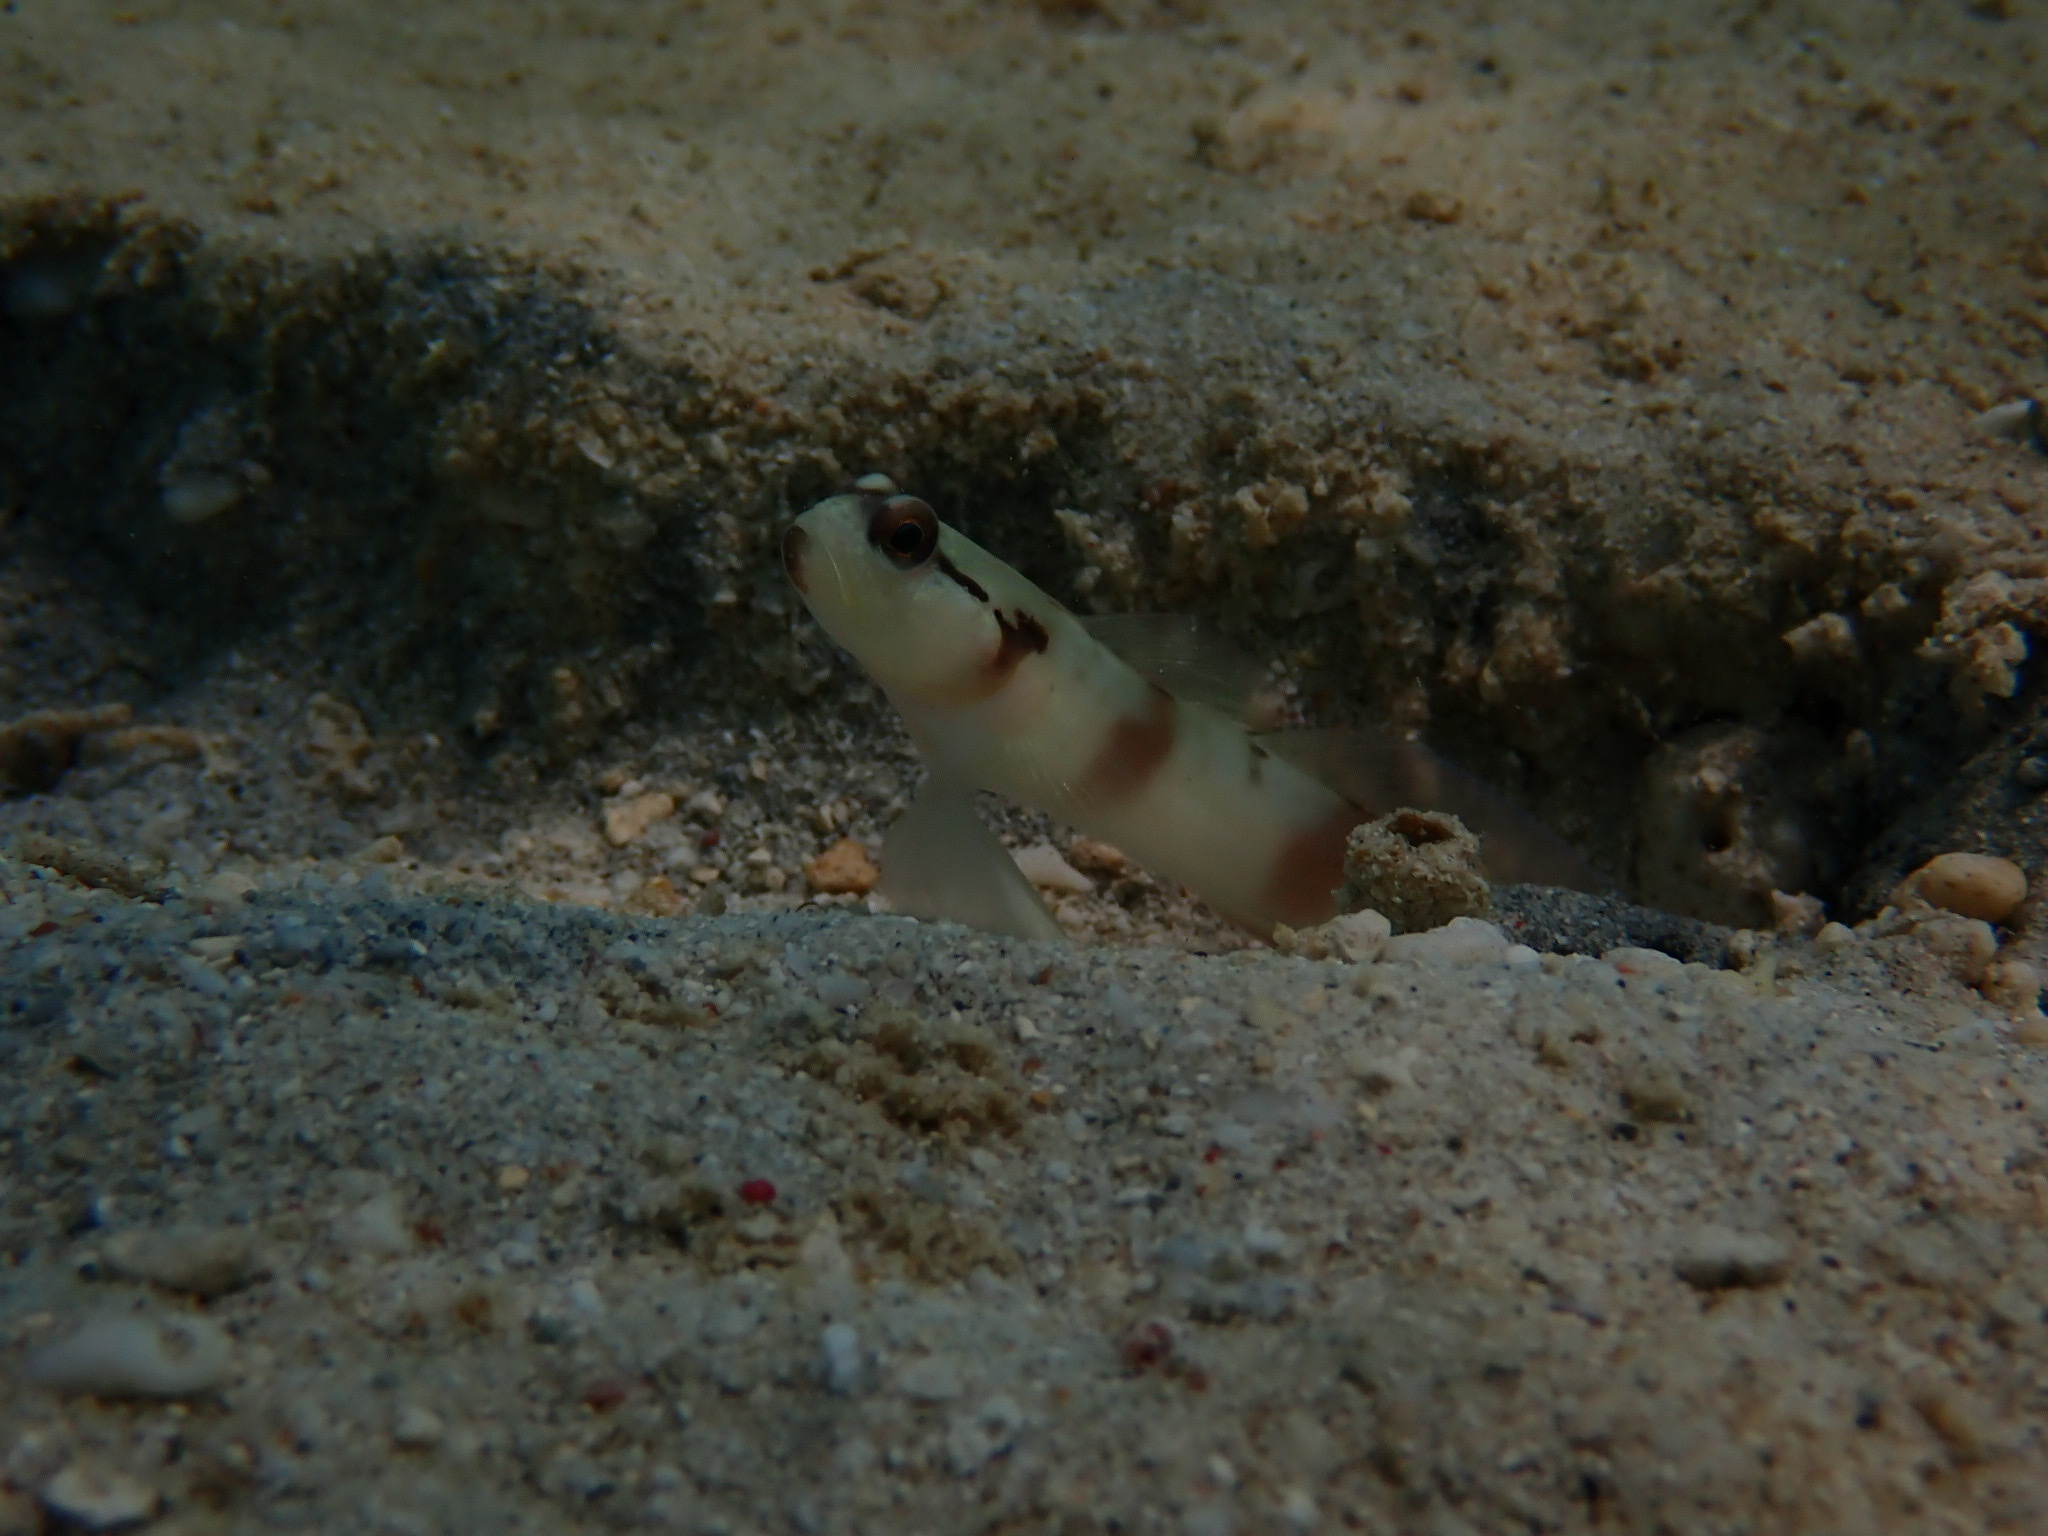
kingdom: Animalia
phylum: Chordata
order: Perciformes
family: Gobiidae
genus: Amblyeleotris
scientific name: Amblyeleotris gymnocephala
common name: Masked shrimpgoby
